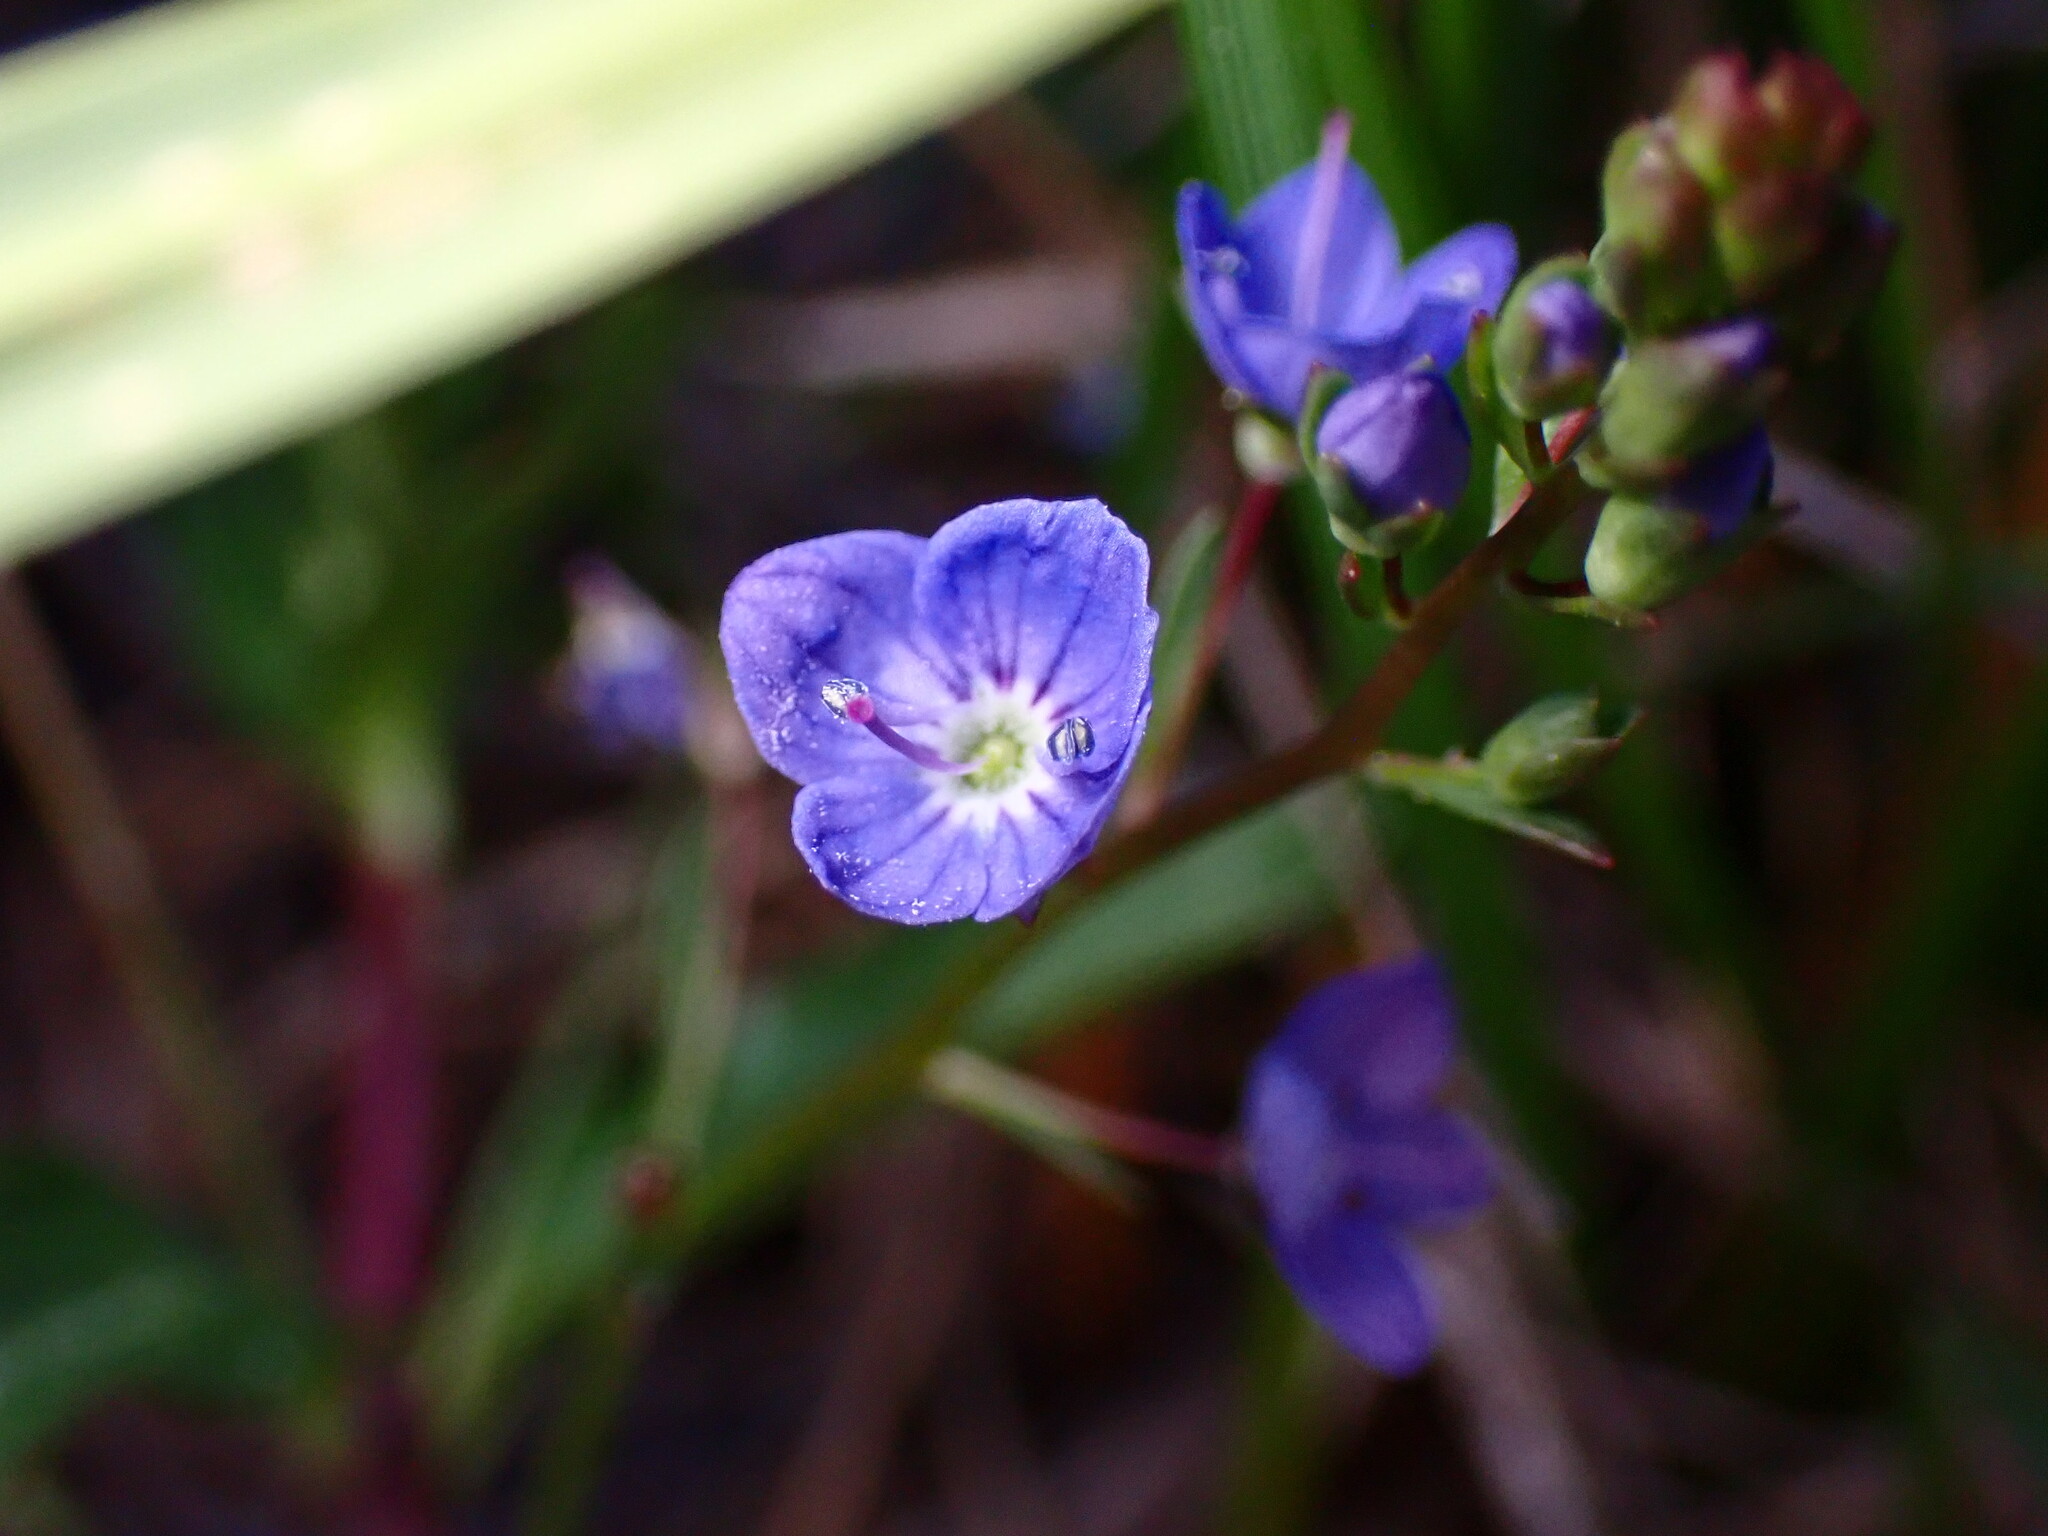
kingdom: Plantae
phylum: Tracheophyta
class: Magnoliopsida
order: Lamiales
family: Plantaginaceae
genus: Veronica
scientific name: Veronica americana
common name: American brooklime
